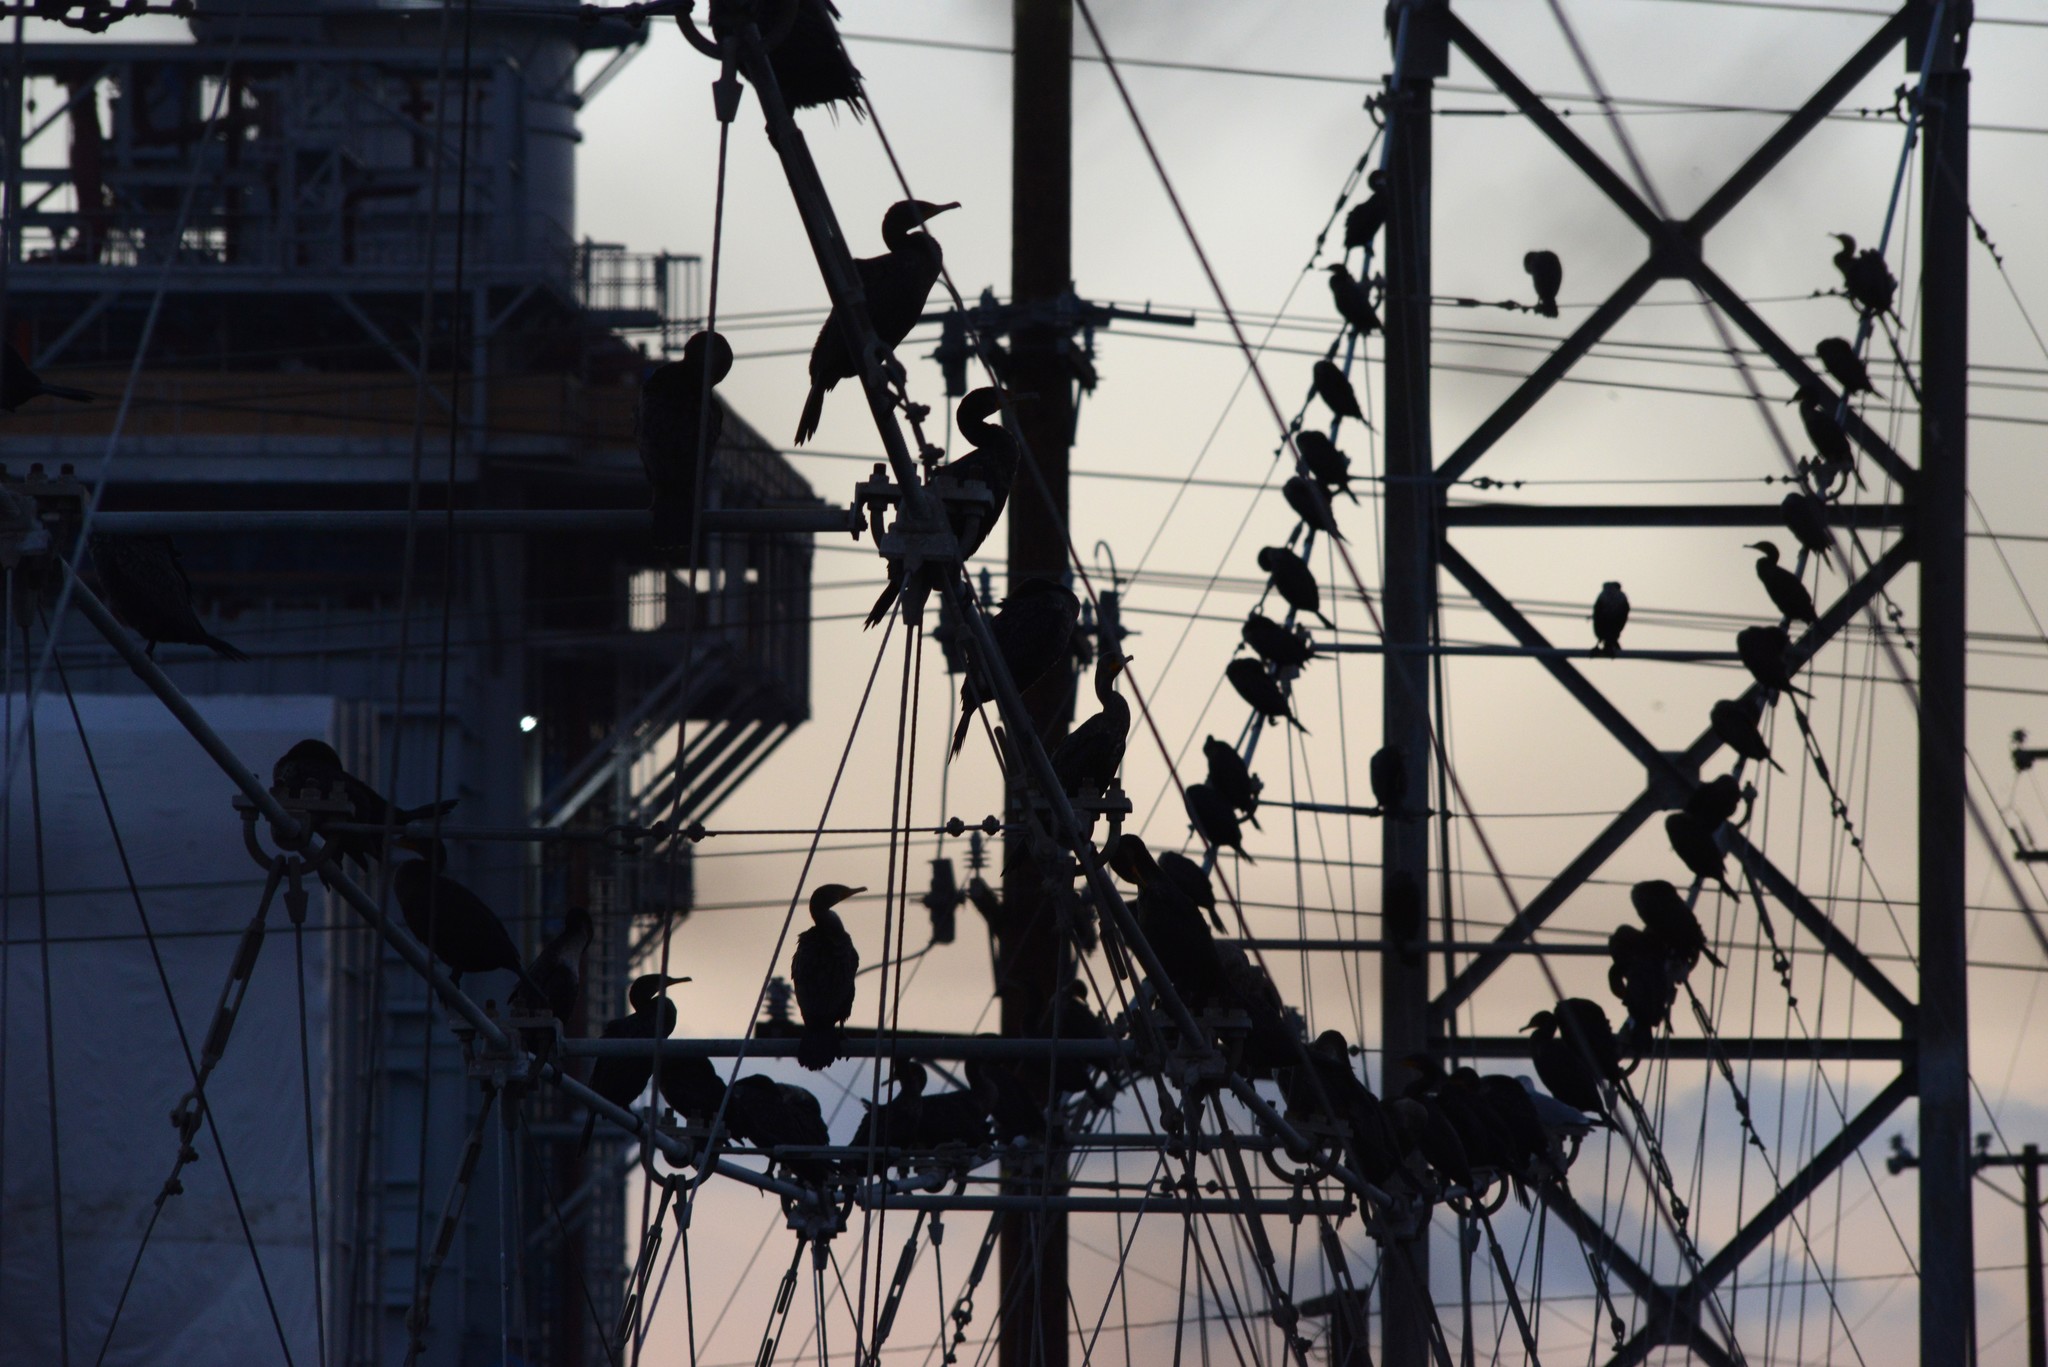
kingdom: Animalia
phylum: Chordata
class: Aves
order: Suliformes
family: Phalacrocoracidae
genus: Phalacrocorax
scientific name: Phalacrocorax auritus
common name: Double-crested cormorant
